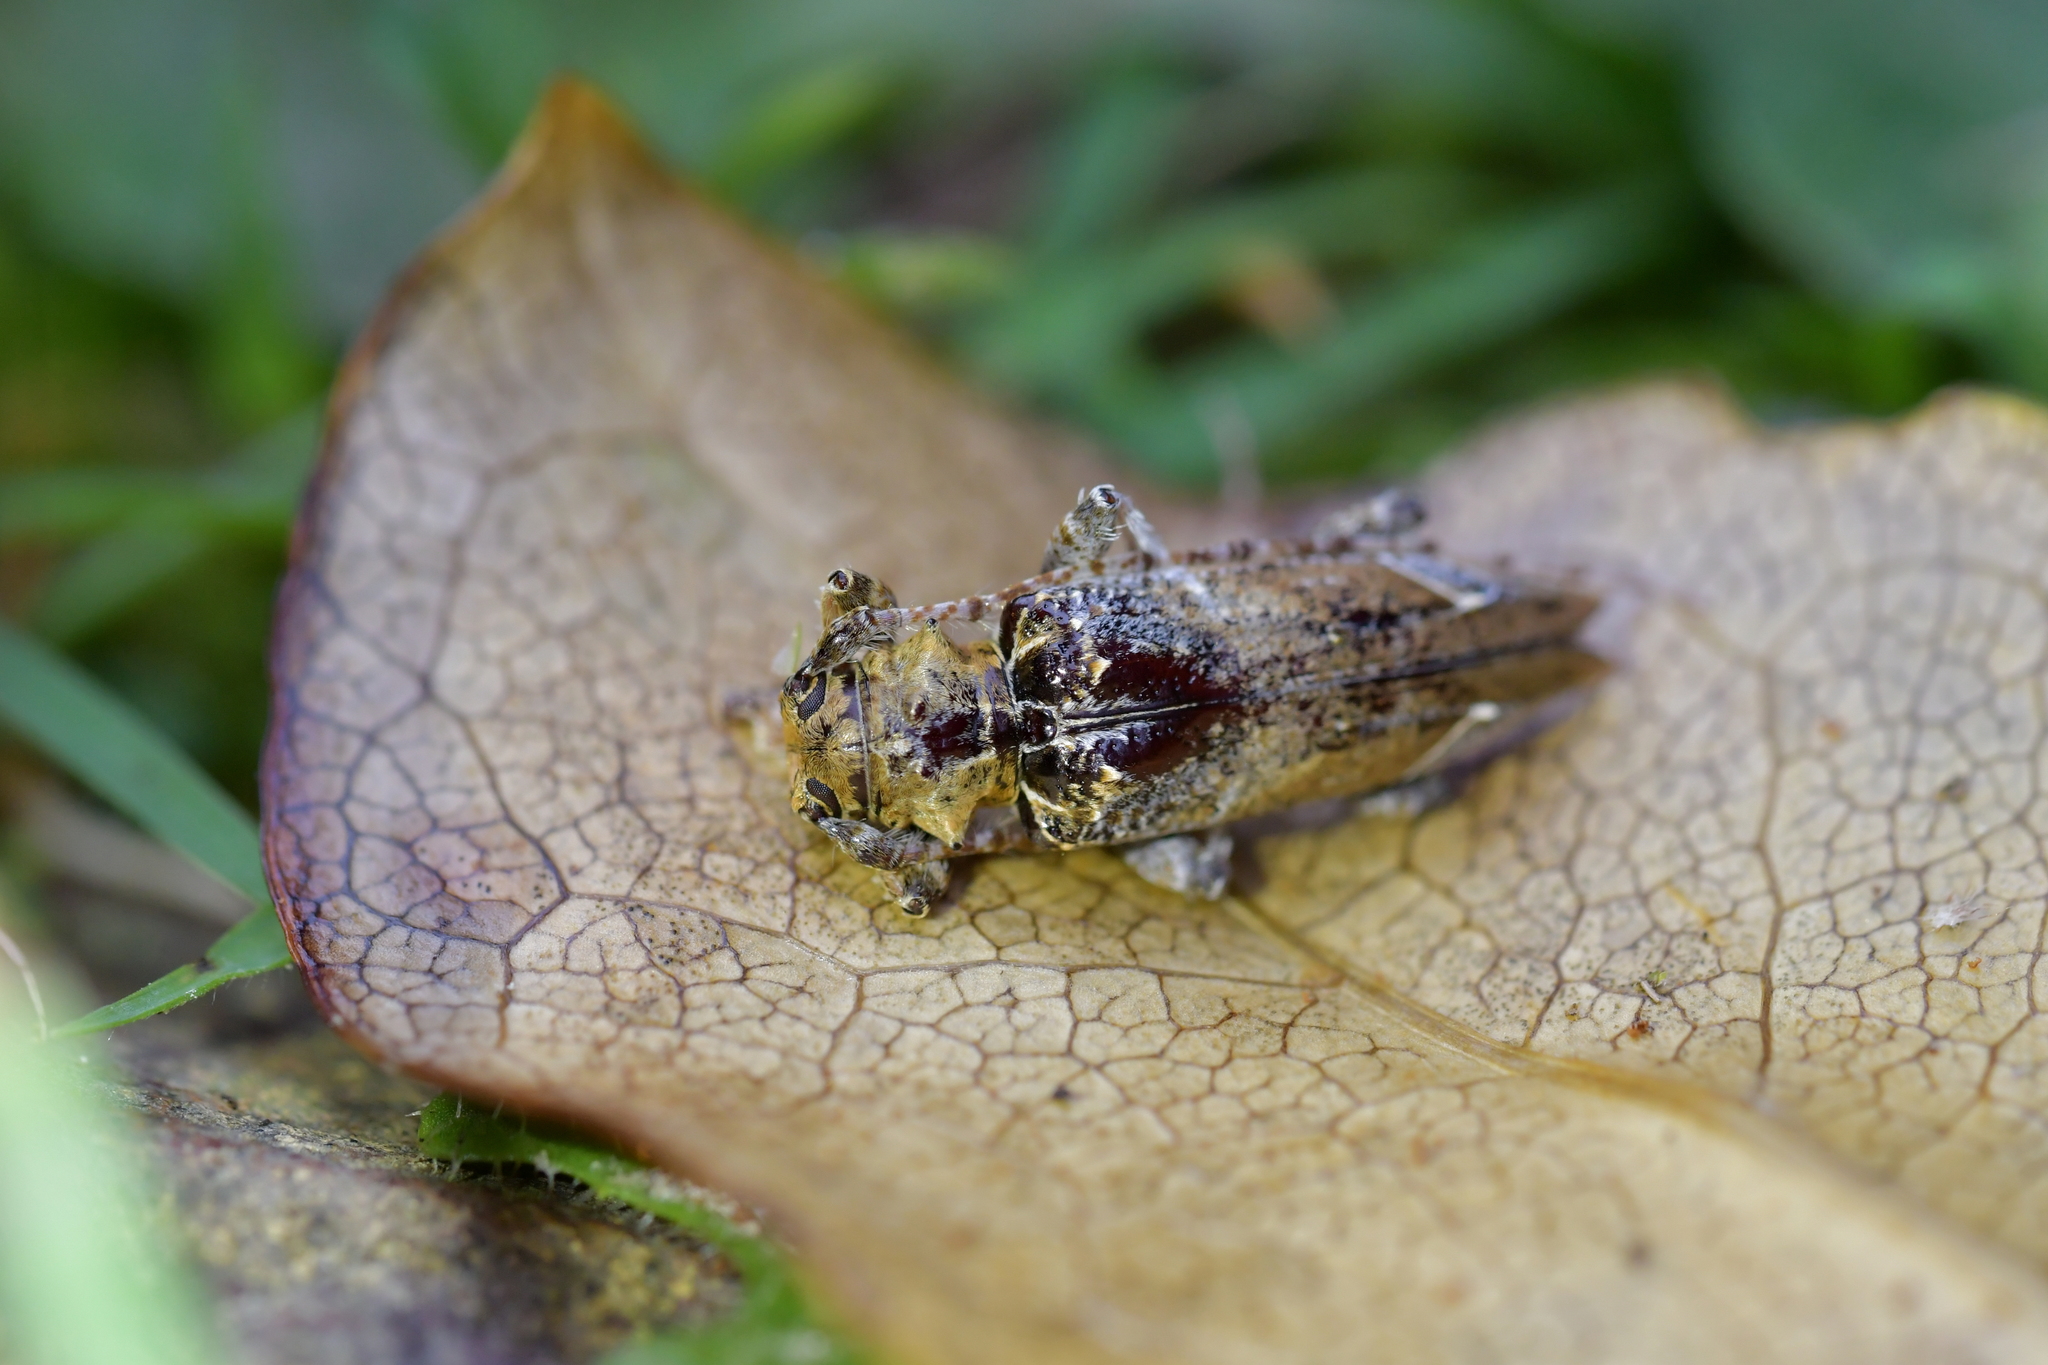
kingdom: Animalia
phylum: Arthropoda
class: Insecta
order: Coleoptera
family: Cerambycidae
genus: Tetrorea
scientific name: Tetrorea cilipes
